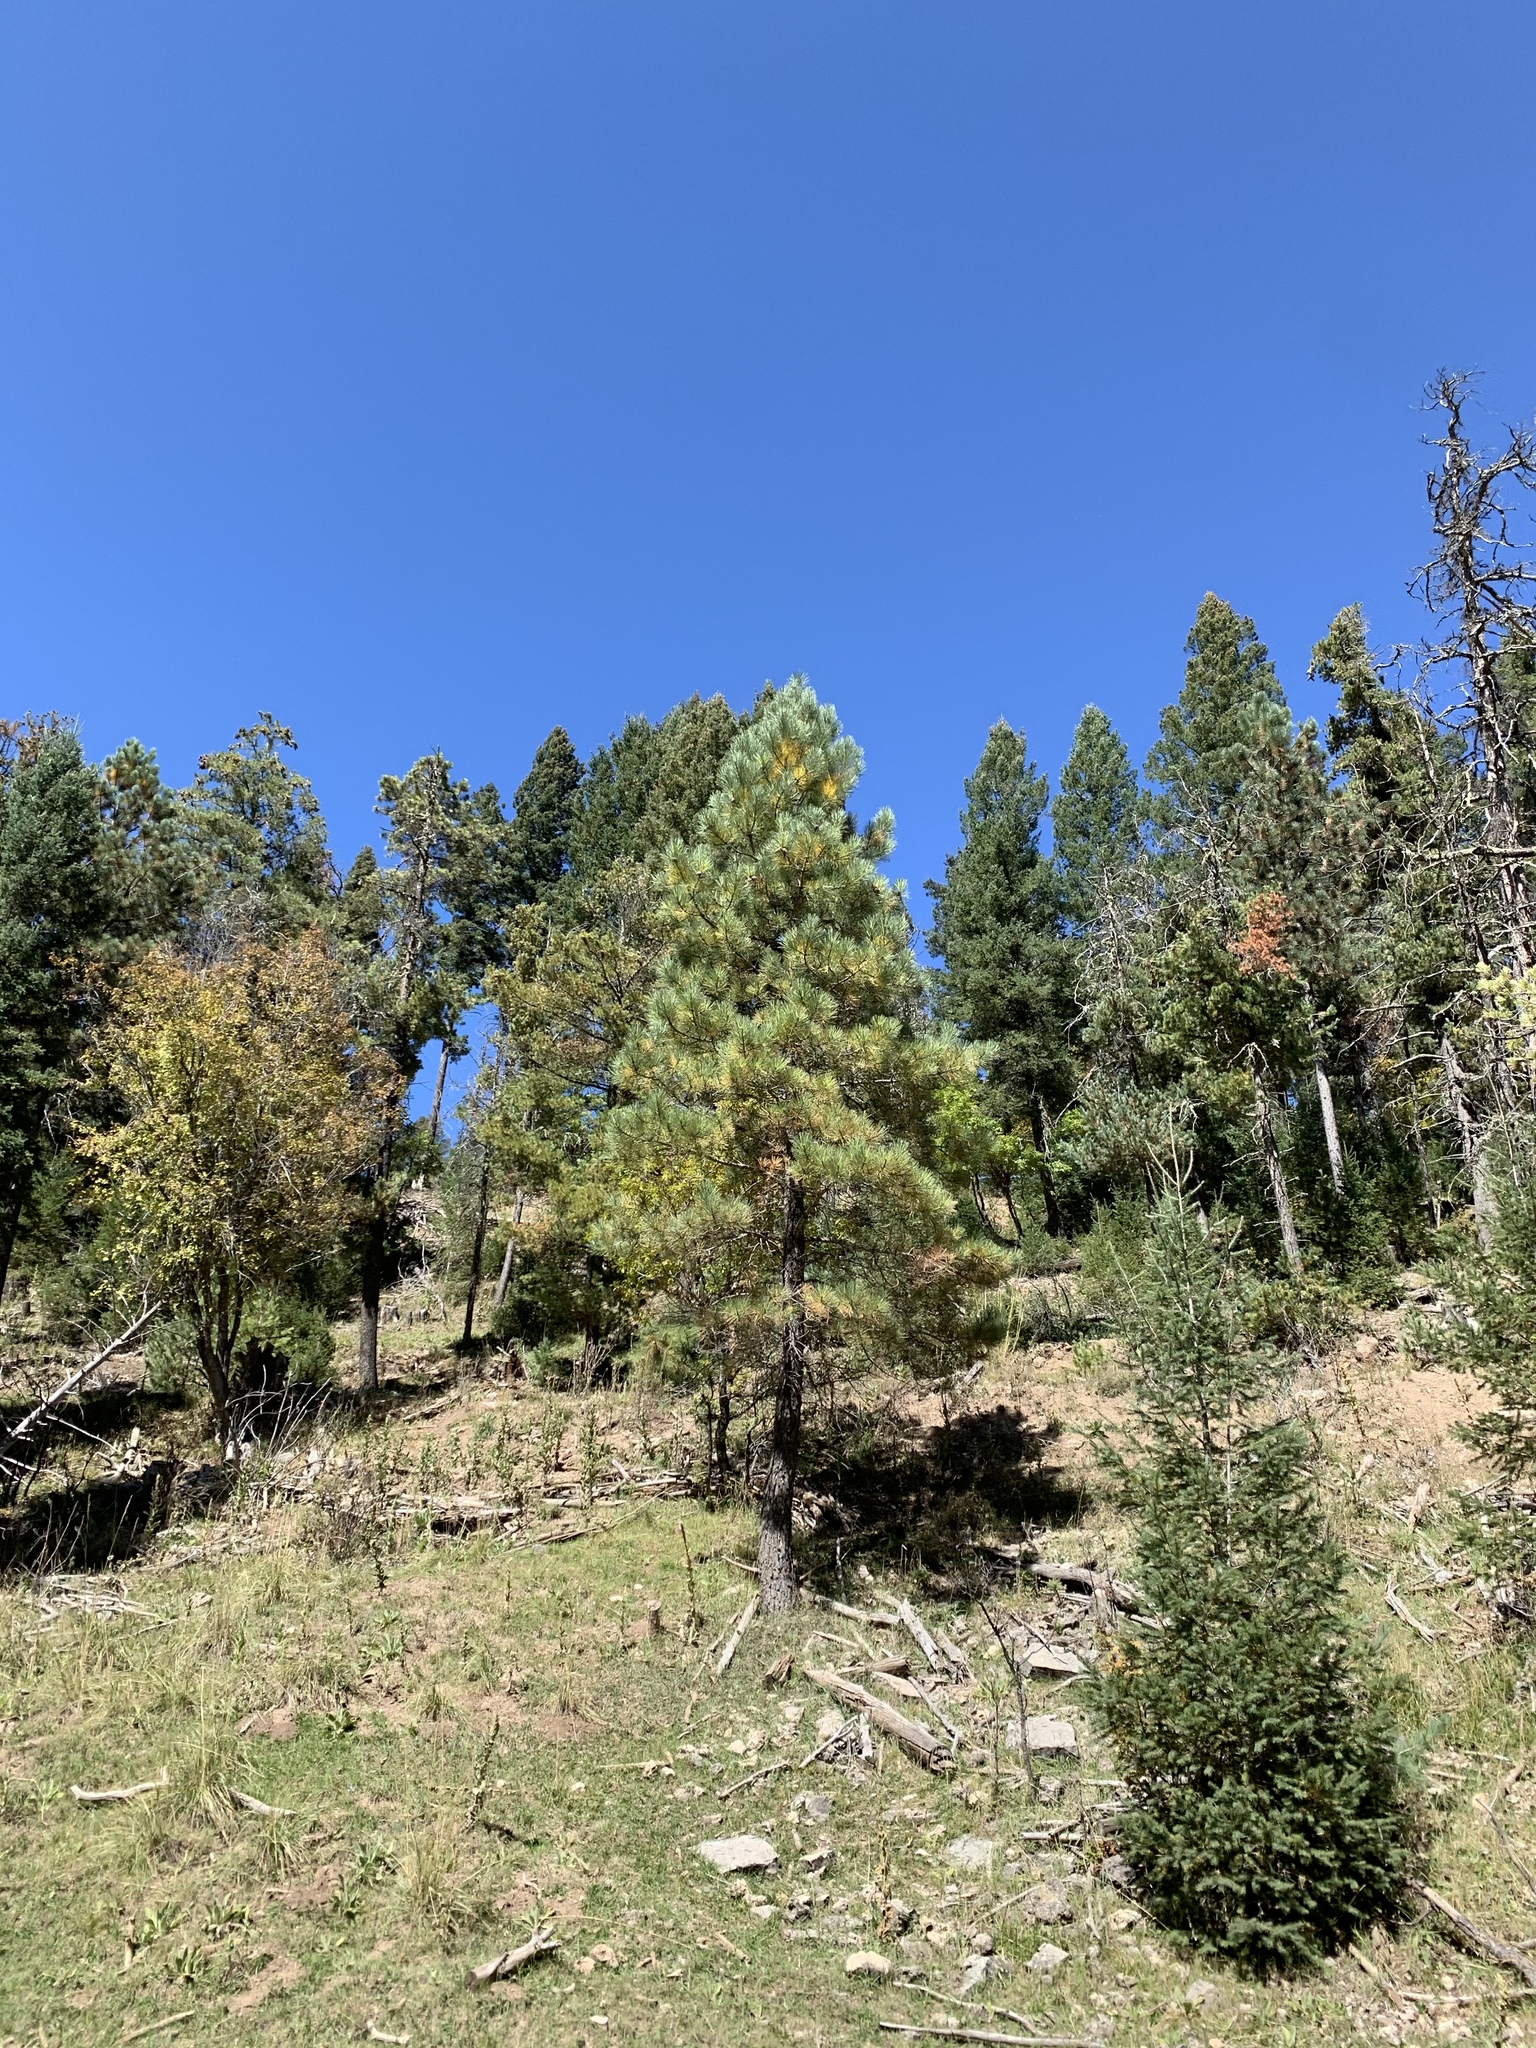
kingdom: Plantae
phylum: Tracheophyta
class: Pinopsida
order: Pinales
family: Pinaceae
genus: Pinus
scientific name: Pinus ponderosa
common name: Western yellow-pine
